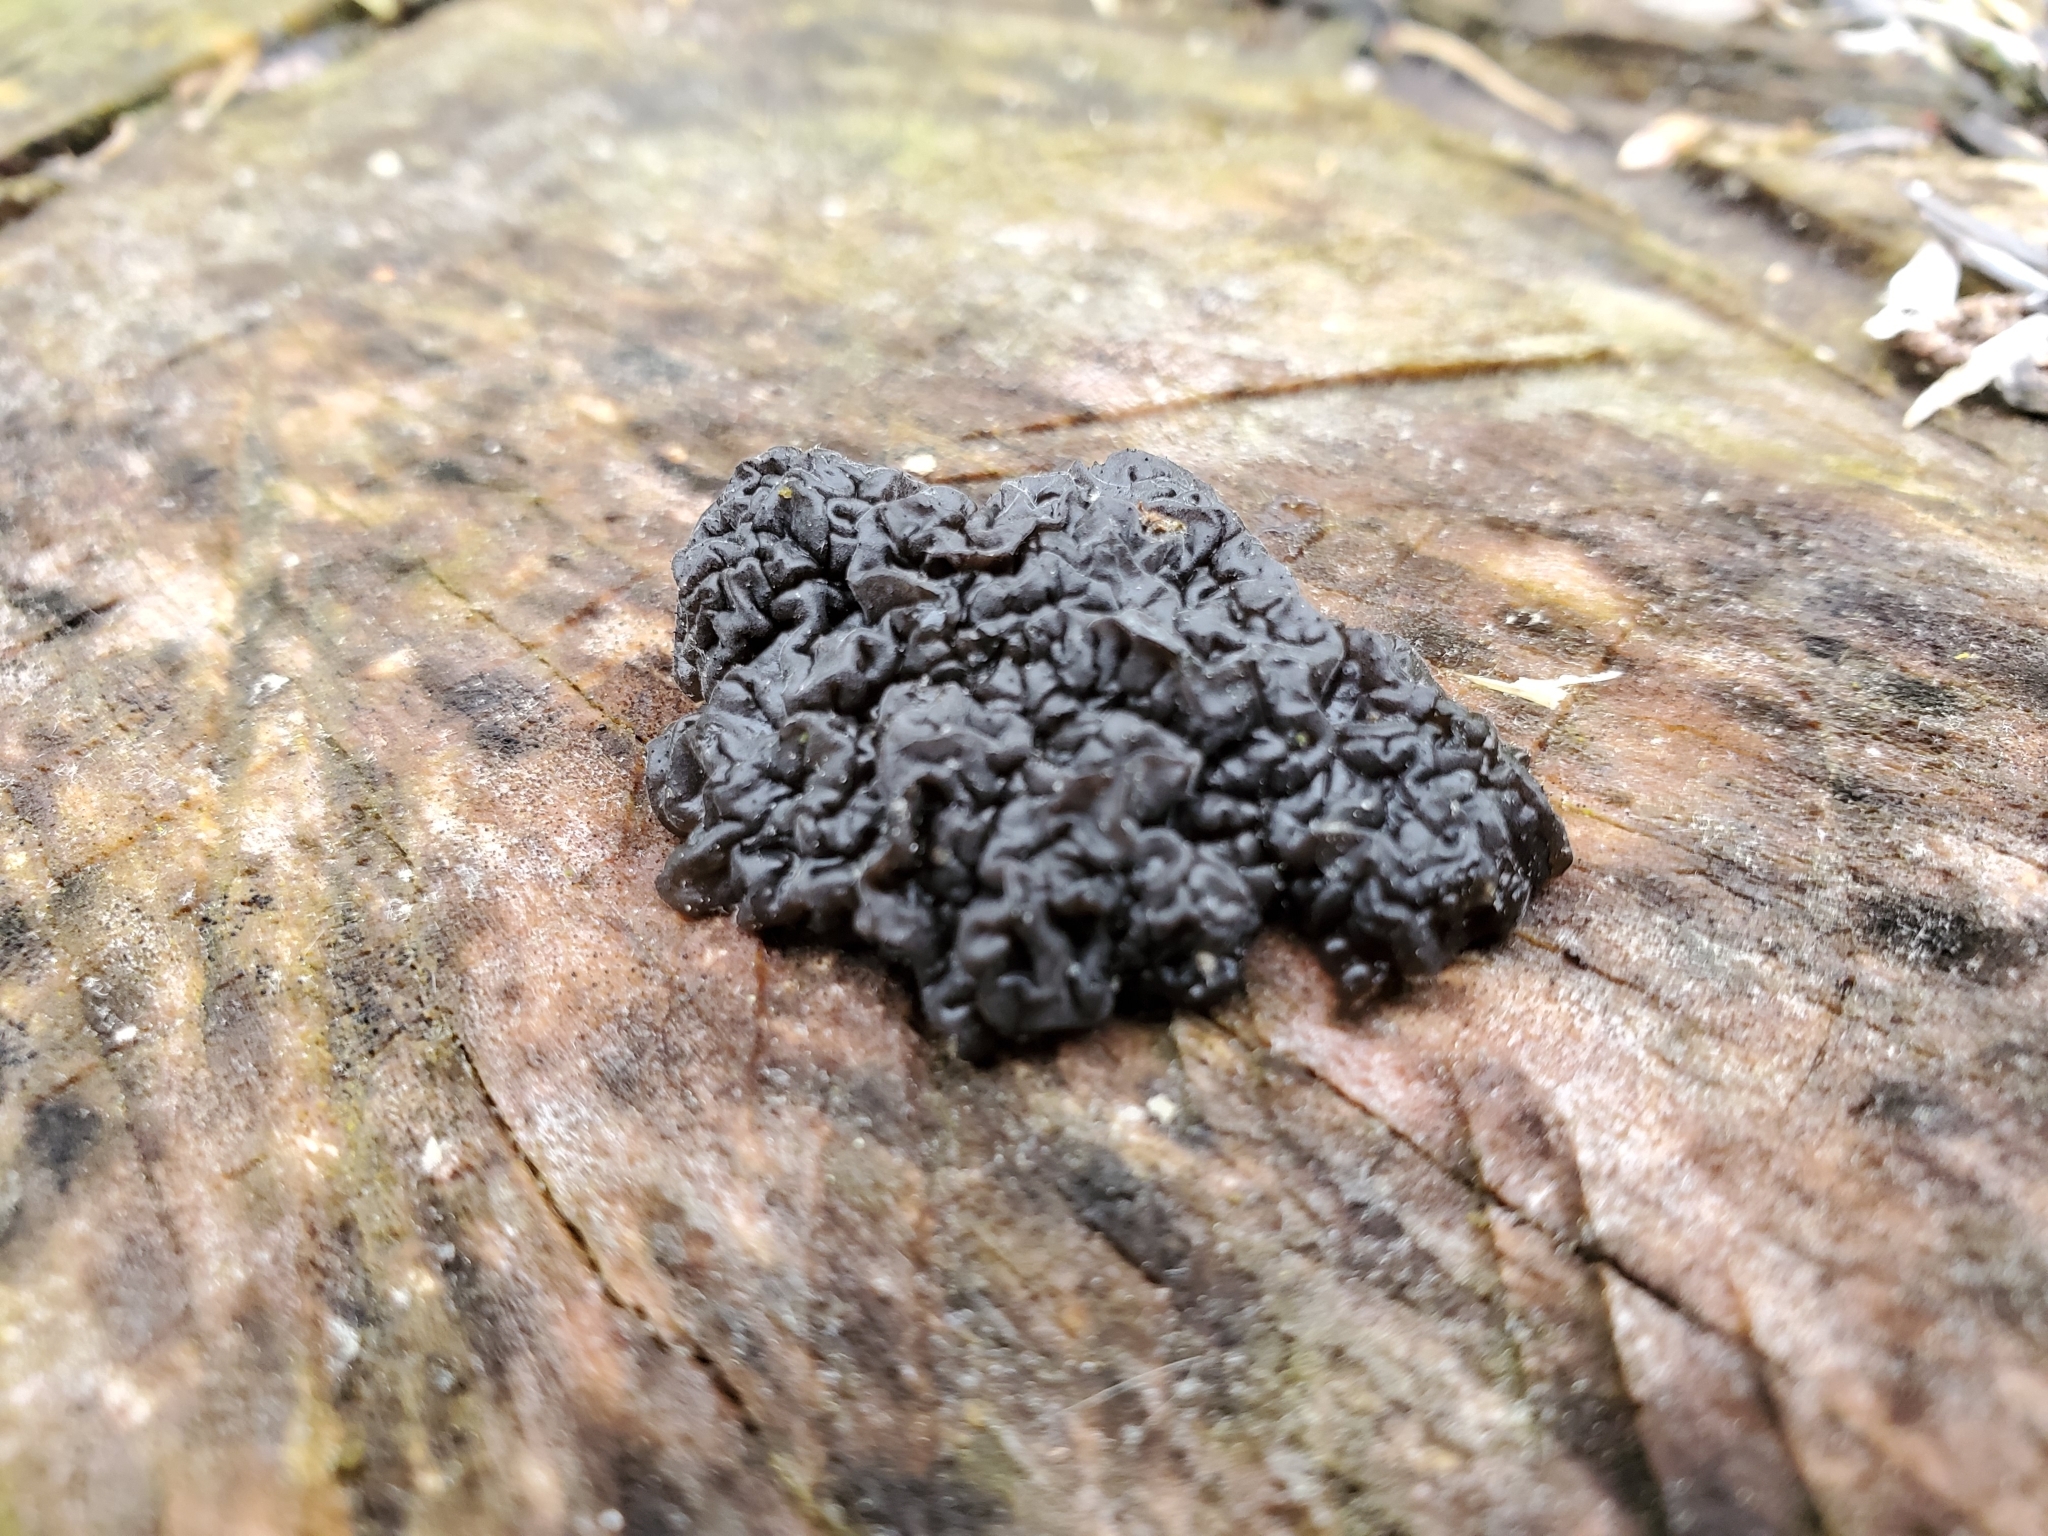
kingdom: Fungi
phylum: Basidiomycota
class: Agaricomycetes
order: Auriculariales
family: Auriculariaceae
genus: Exidia
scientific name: Exidia nigricans
